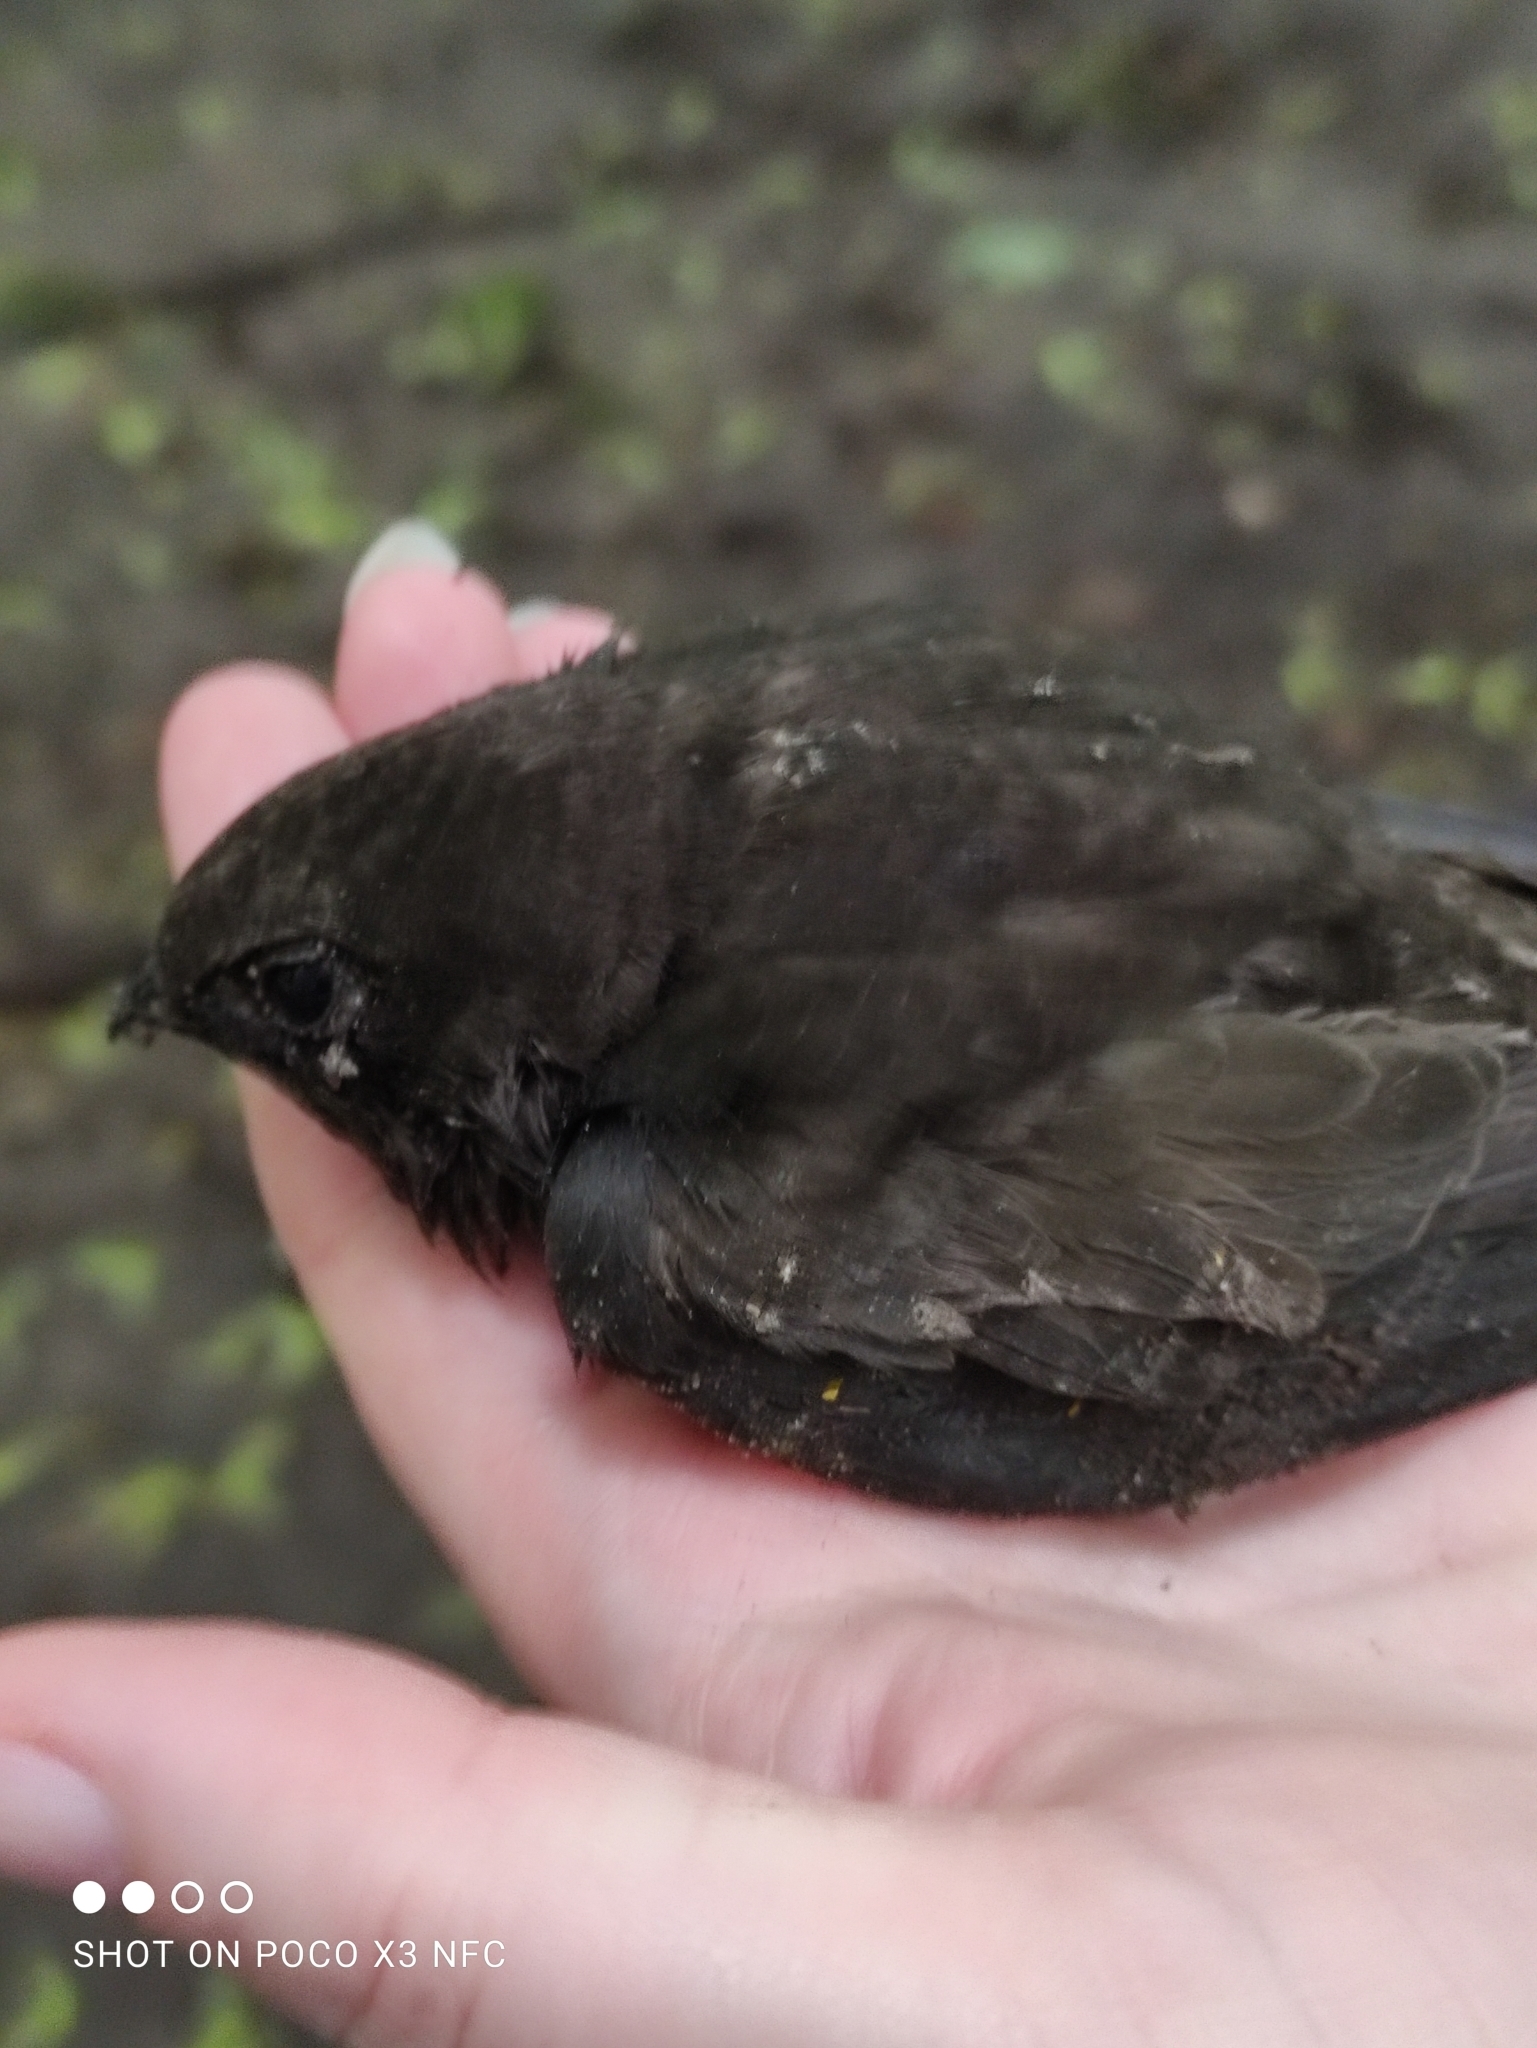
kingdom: Animalia
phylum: Chordata
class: Aves
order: Apodiformes
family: Apodidae
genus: Apus
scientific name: Apus apus
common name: Common swift
